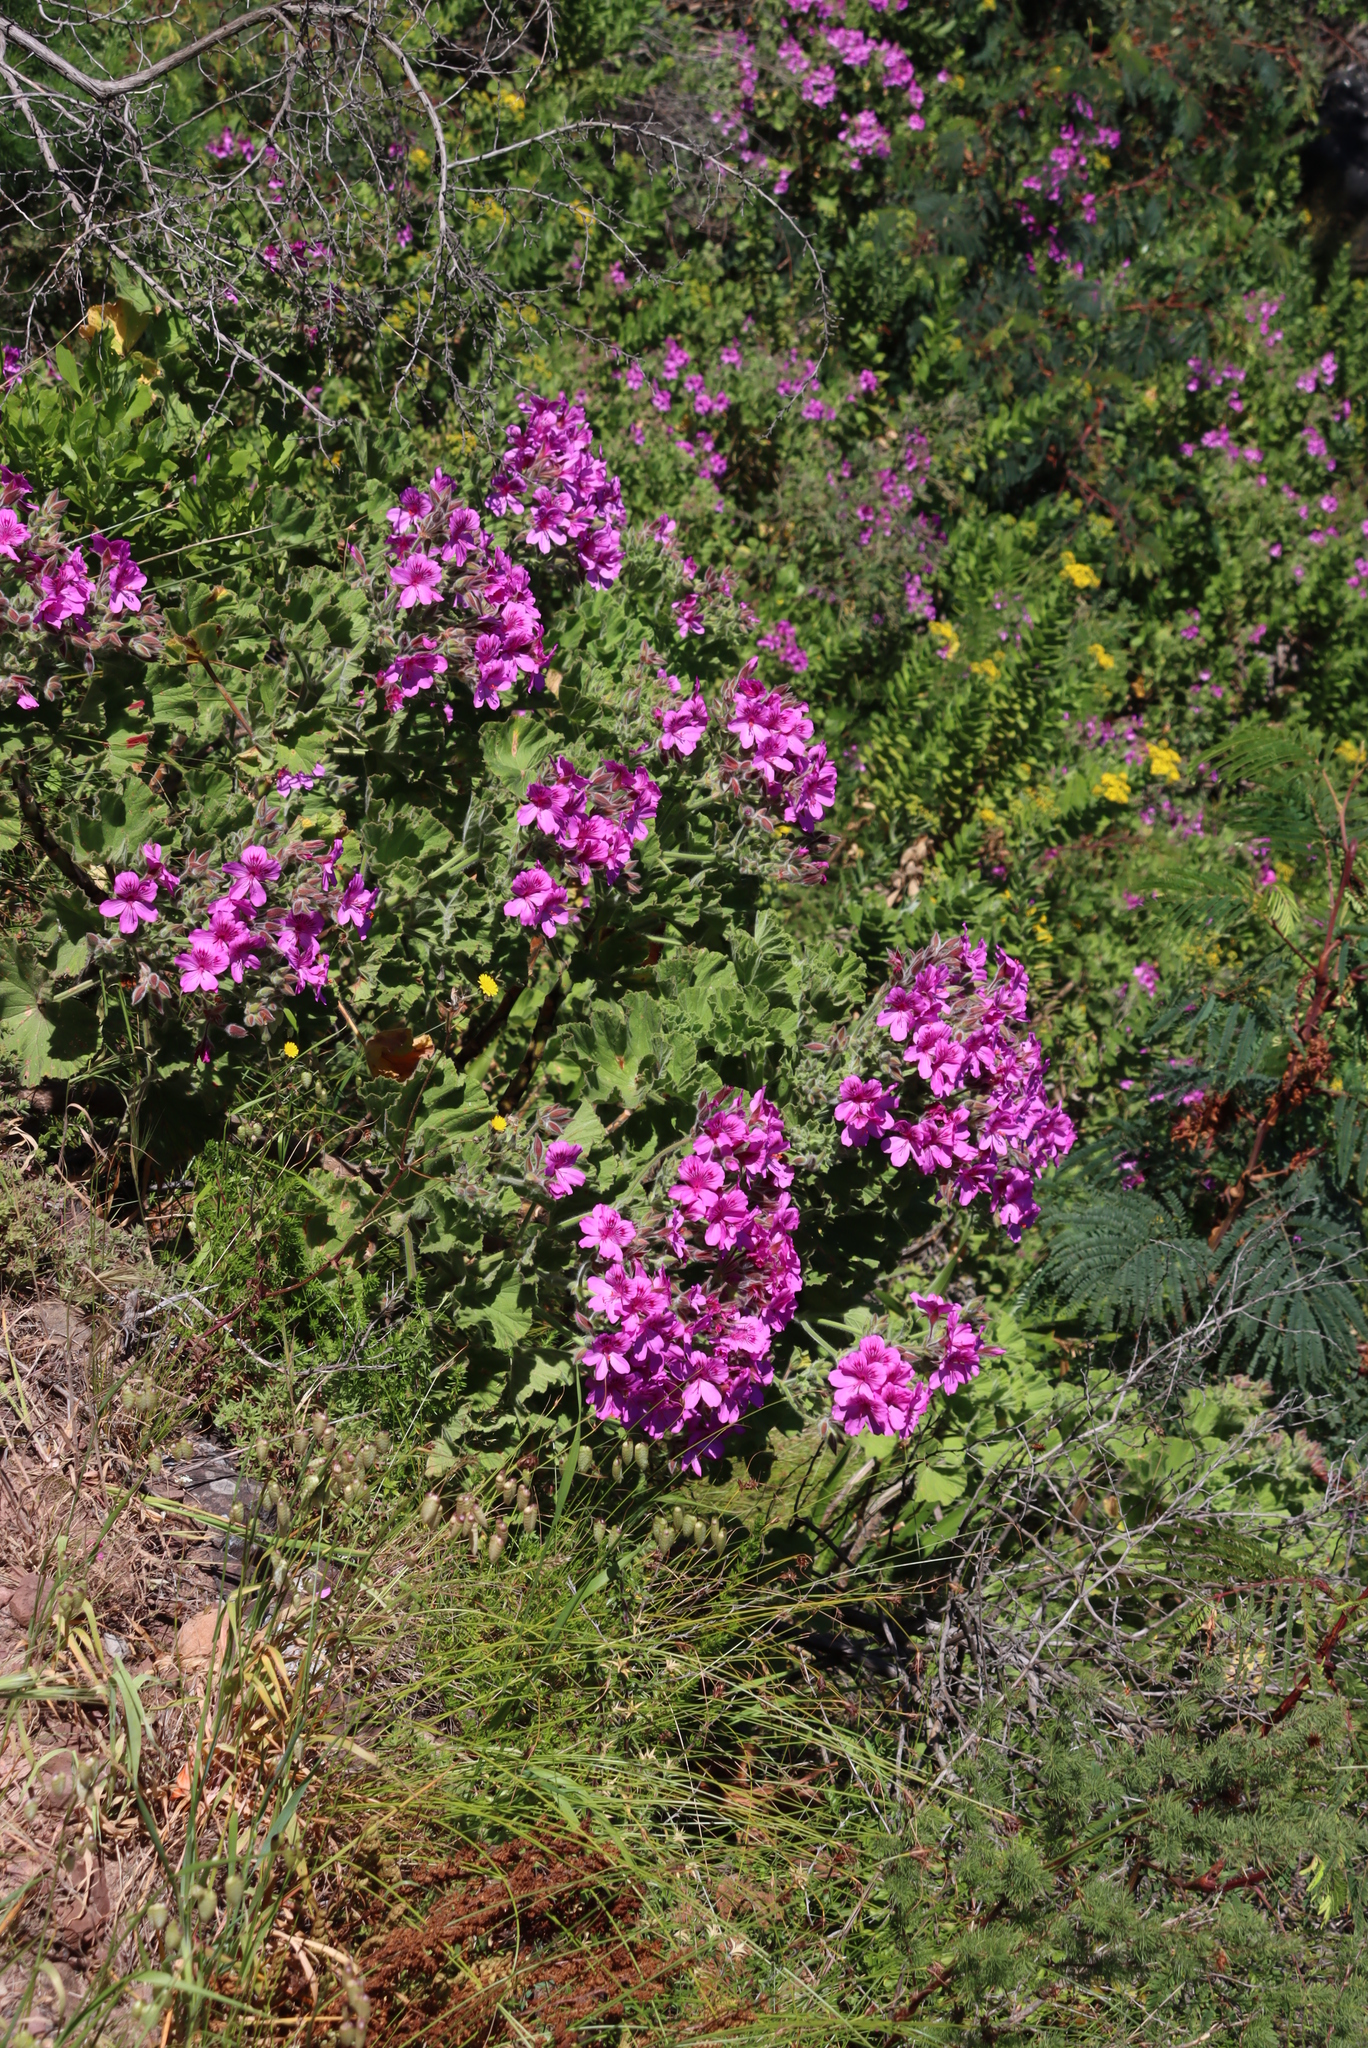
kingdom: Plantae
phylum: Tracheophyta
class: Magnoliopsida
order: Geraniales
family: Geraniaceae
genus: Pelargonium
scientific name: Pelargonium cucullatum
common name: Tree pelargonium
